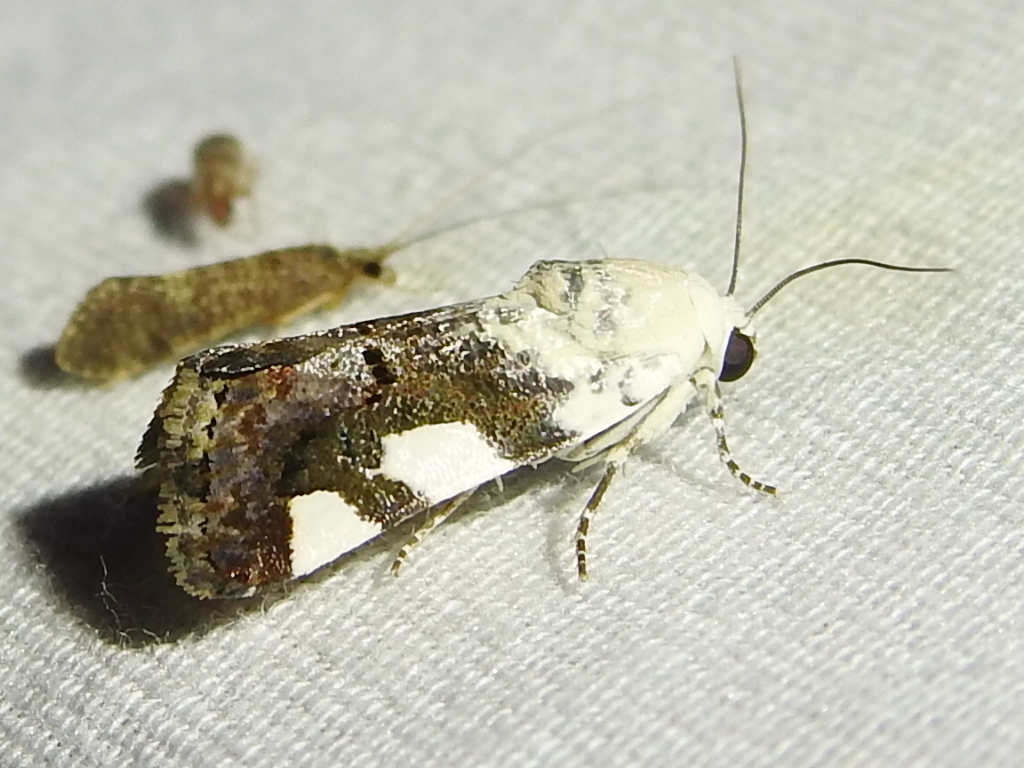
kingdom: Animalia
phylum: Arthropoda
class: Insecta
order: Lepidoptera
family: Noctuidae
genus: Acontia
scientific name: Acontia quadriplaga
